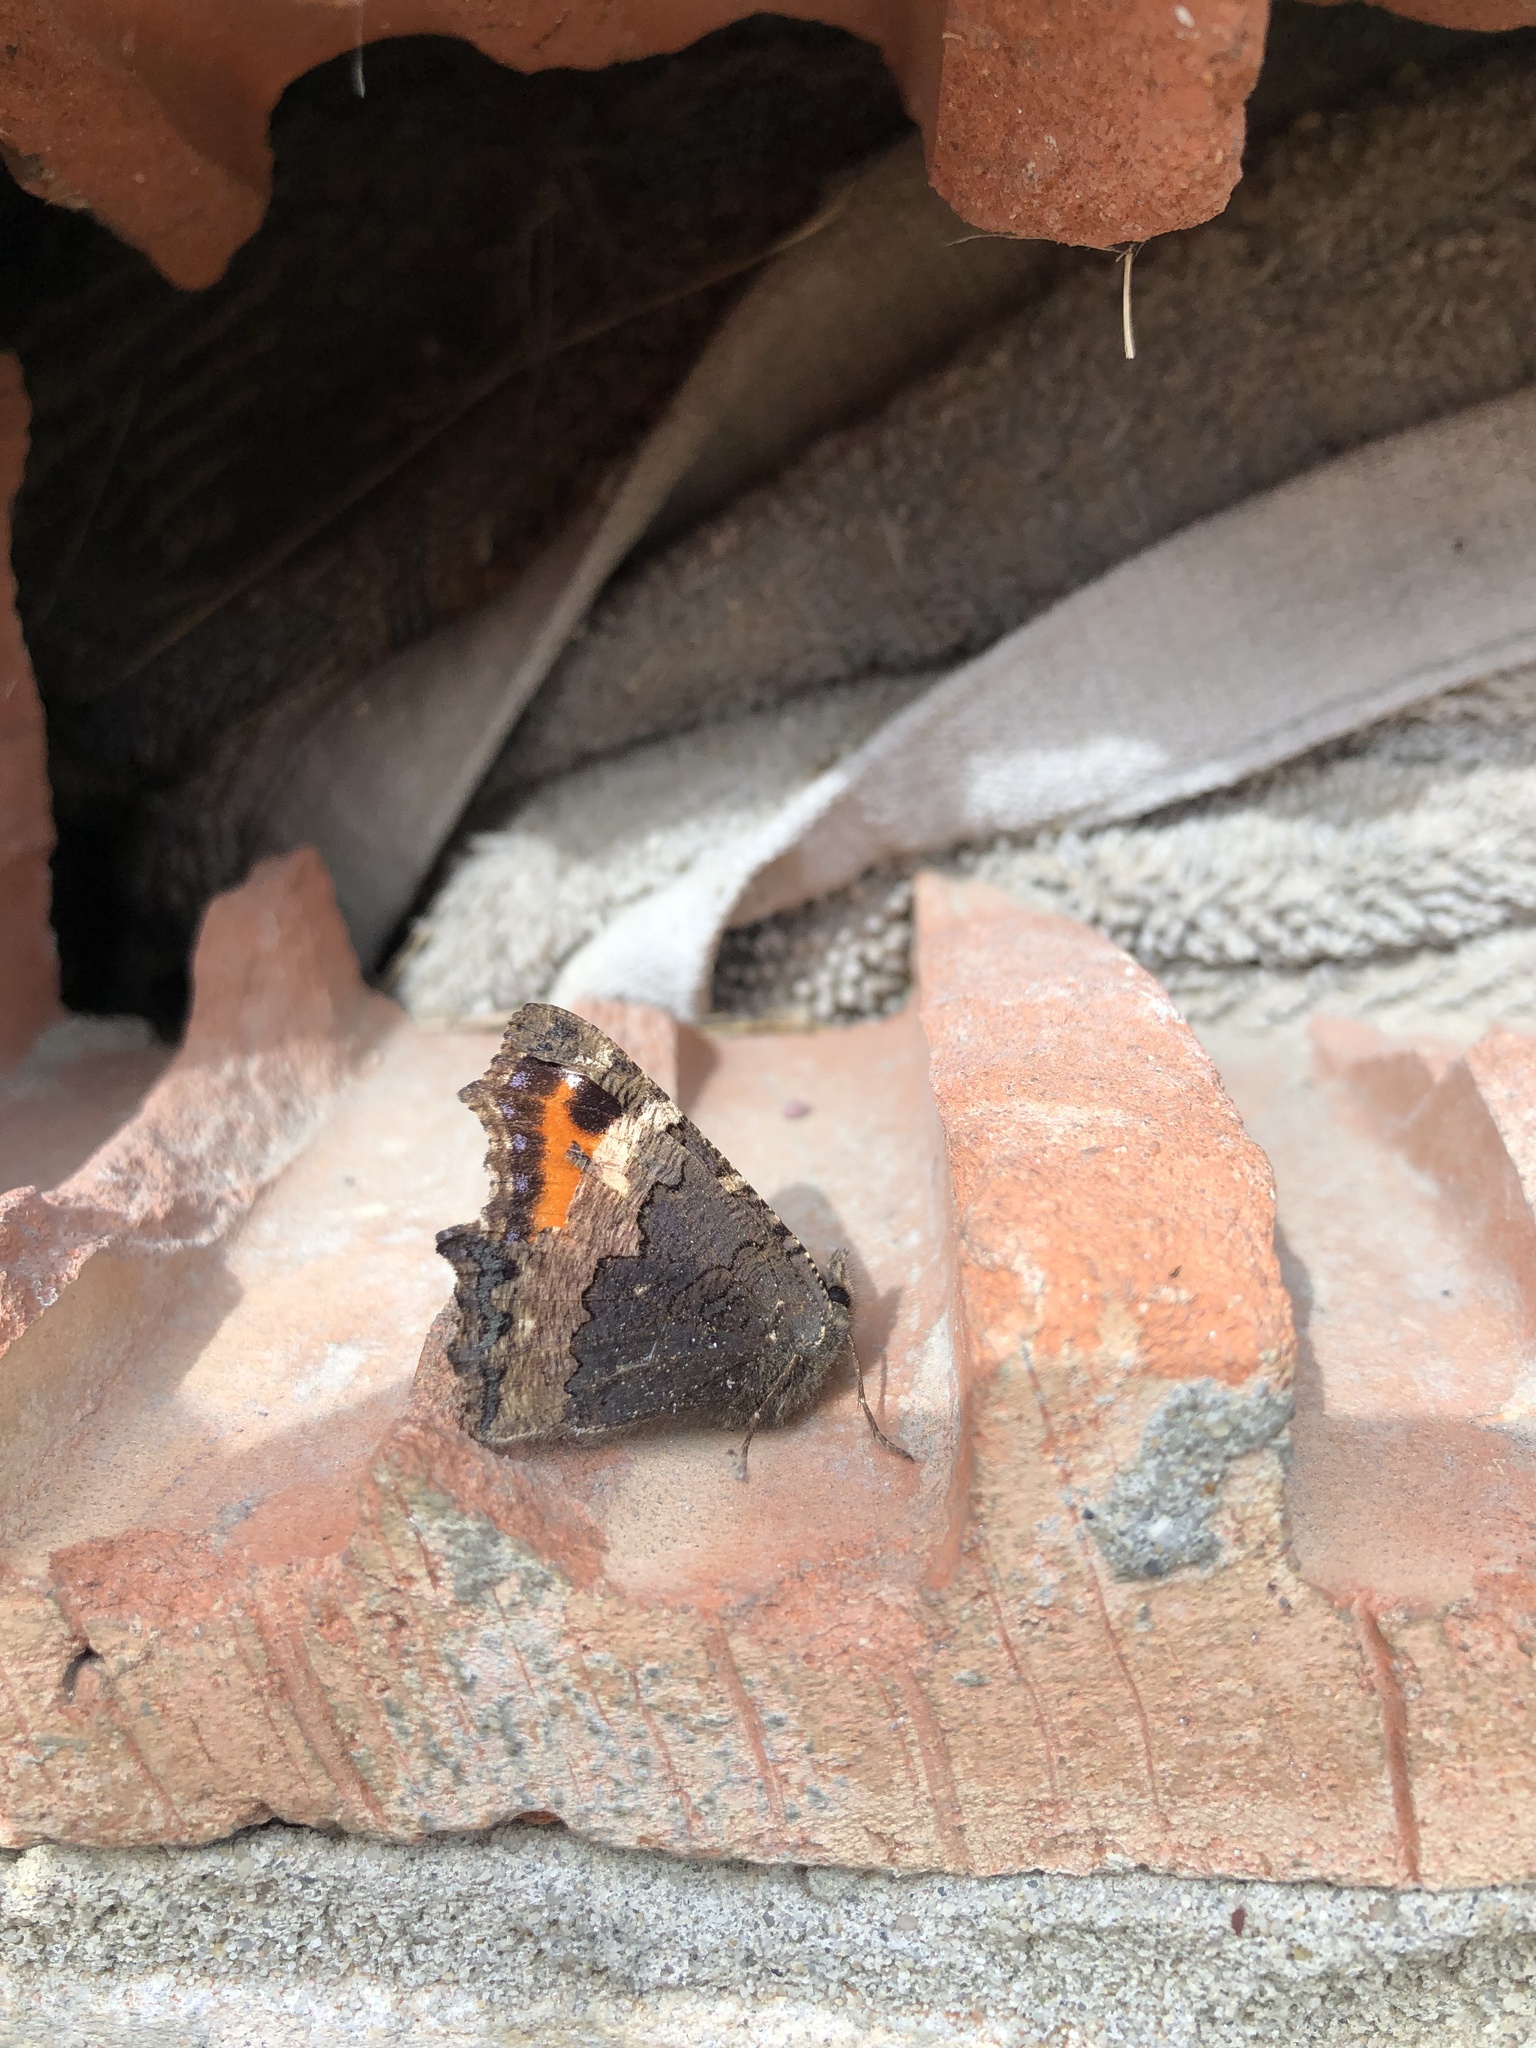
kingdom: Animalia
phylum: Arthropoda
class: Insecta
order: Lepidoptera
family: Nymphalidae
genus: Aglais
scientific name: Aglais urticae
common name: Small tortoiseshell
